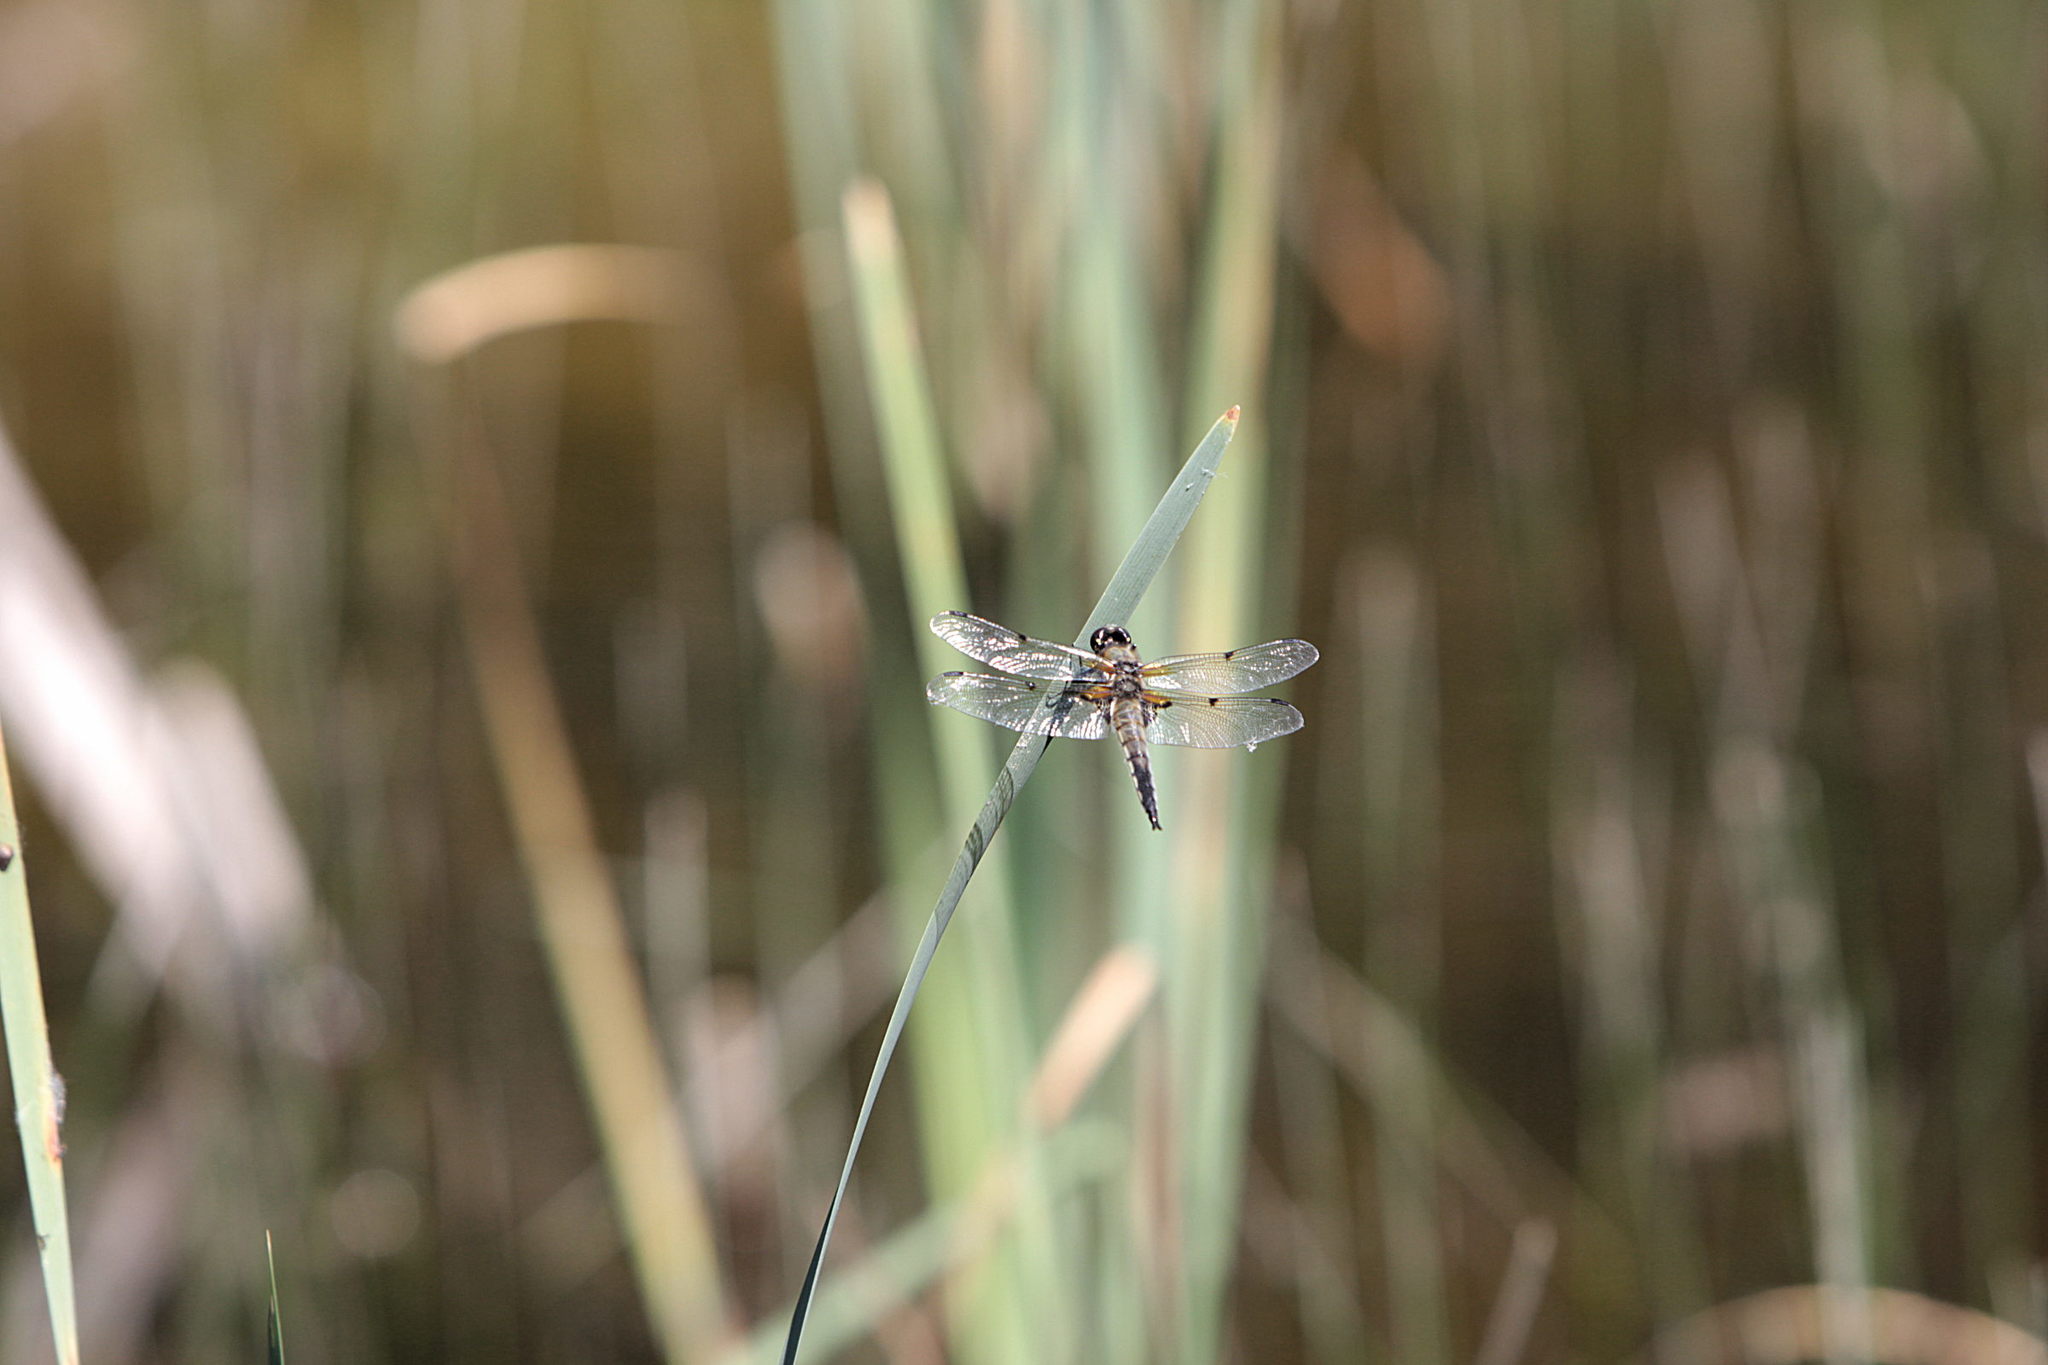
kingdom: Animalia
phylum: Arthropoda
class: Insecta
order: Odonata
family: Libellulidae
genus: Libellula
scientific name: Libellula quadrimaculata
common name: Four-spotted chaser
